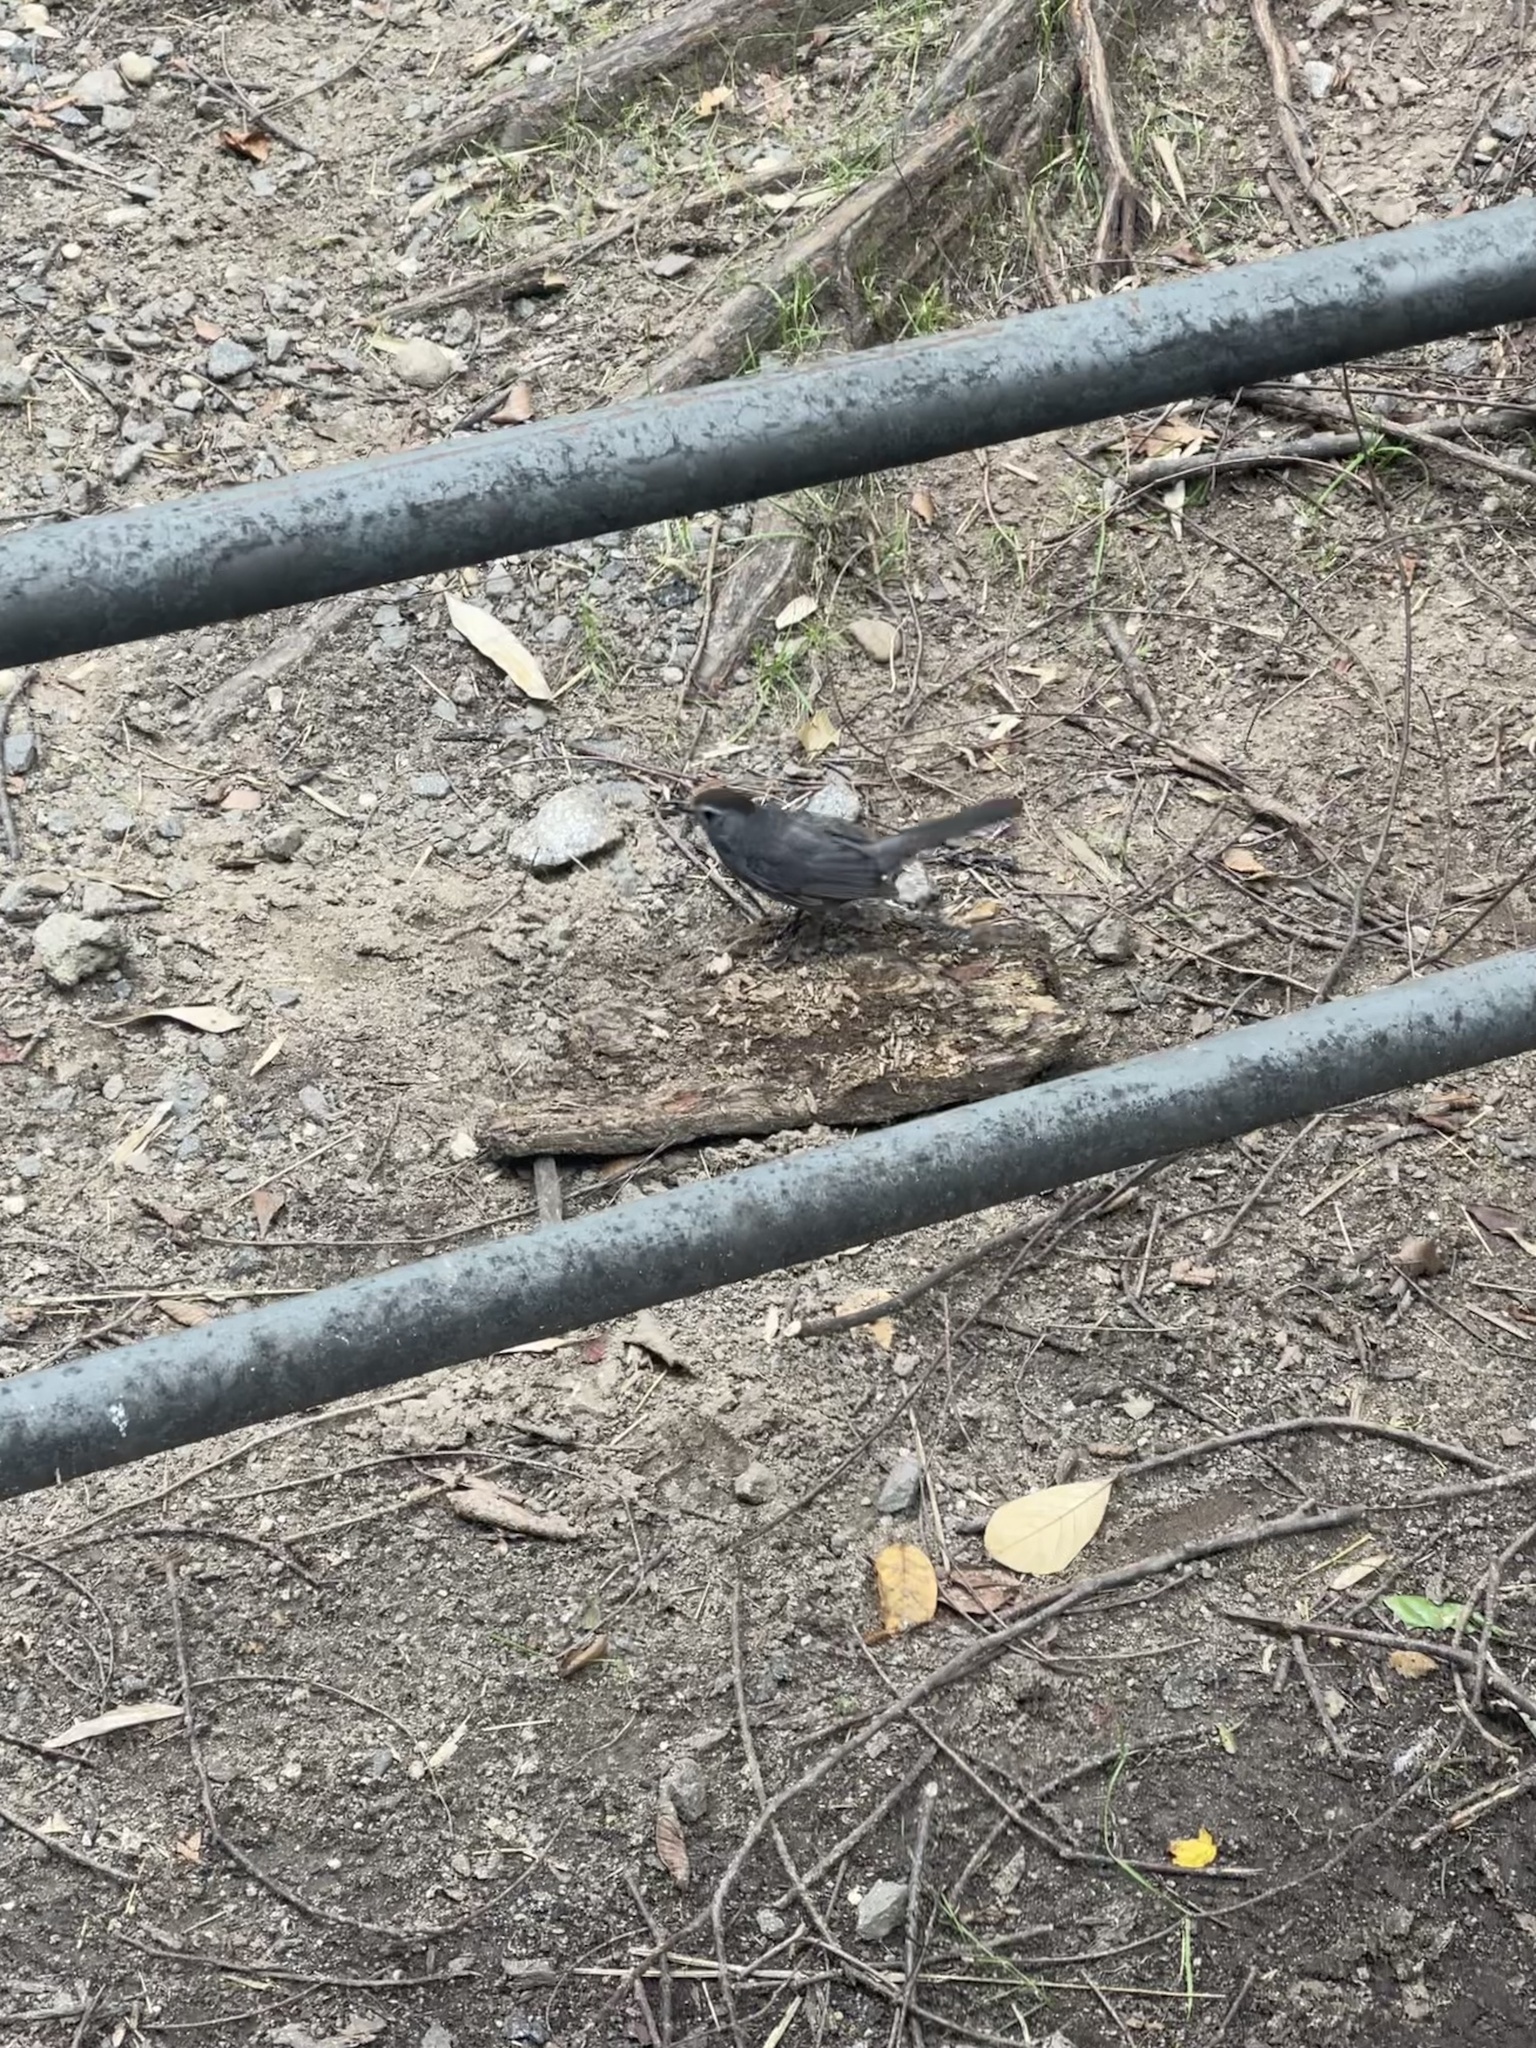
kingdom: Animalia
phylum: Chordata
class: Aves
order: Passeriformes
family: Mimidae
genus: Dumetella
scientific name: Dumetella carolinensis
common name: Gray catbird
